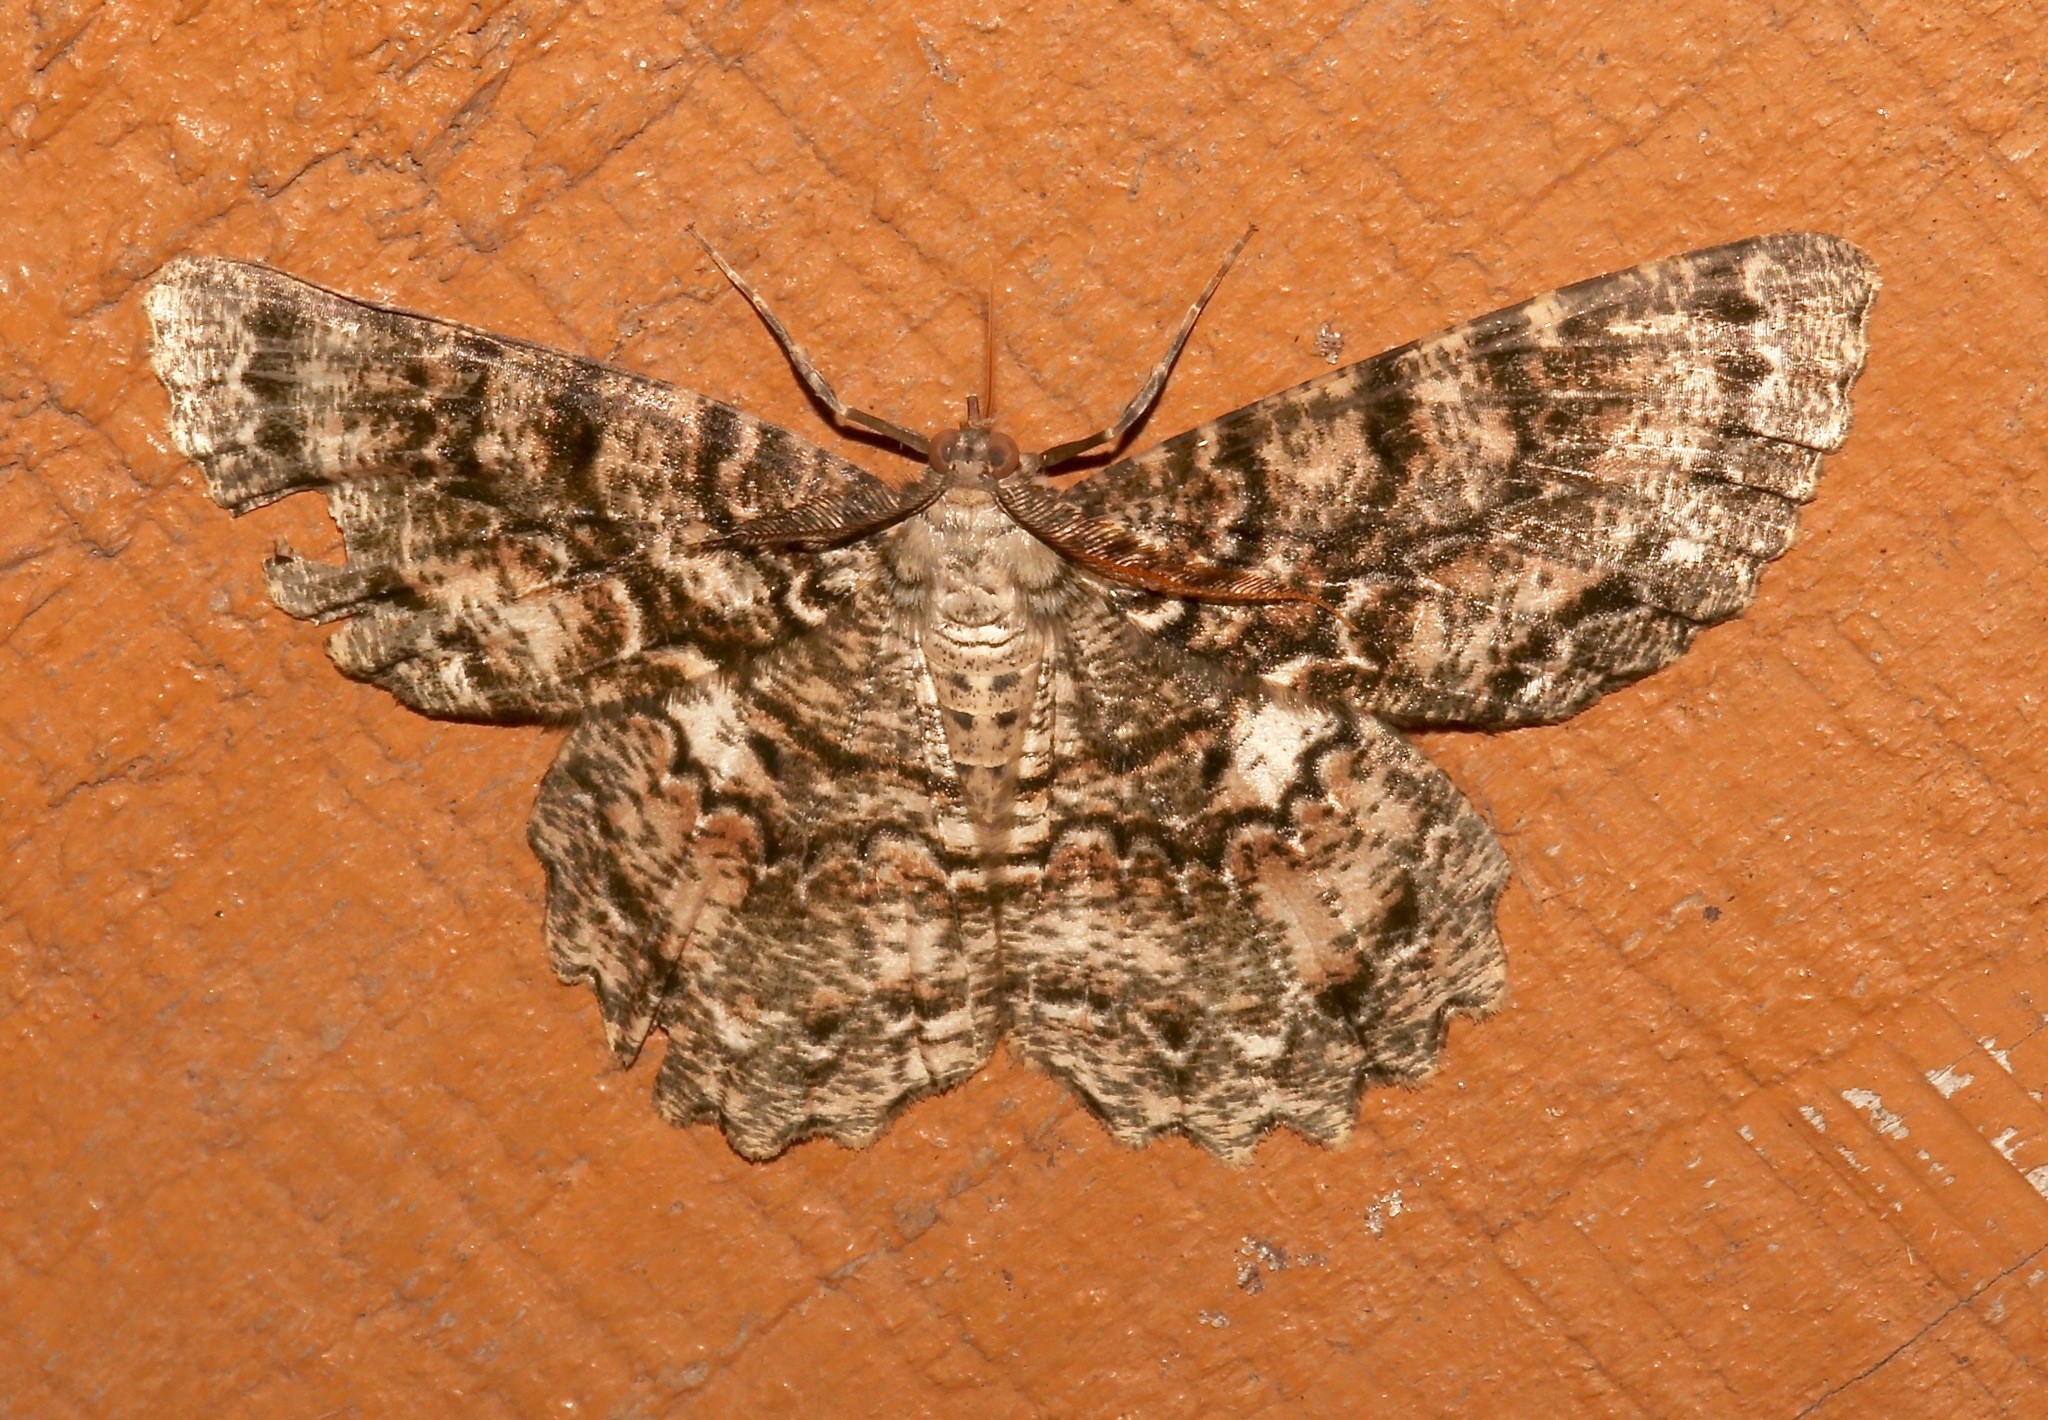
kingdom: Animalia
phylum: Arthropoda
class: Insecta
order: Lepidoptera
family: Geometridae
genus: Epimecis
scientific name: Epimecis hortaria
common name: Tulip-tree beauty
